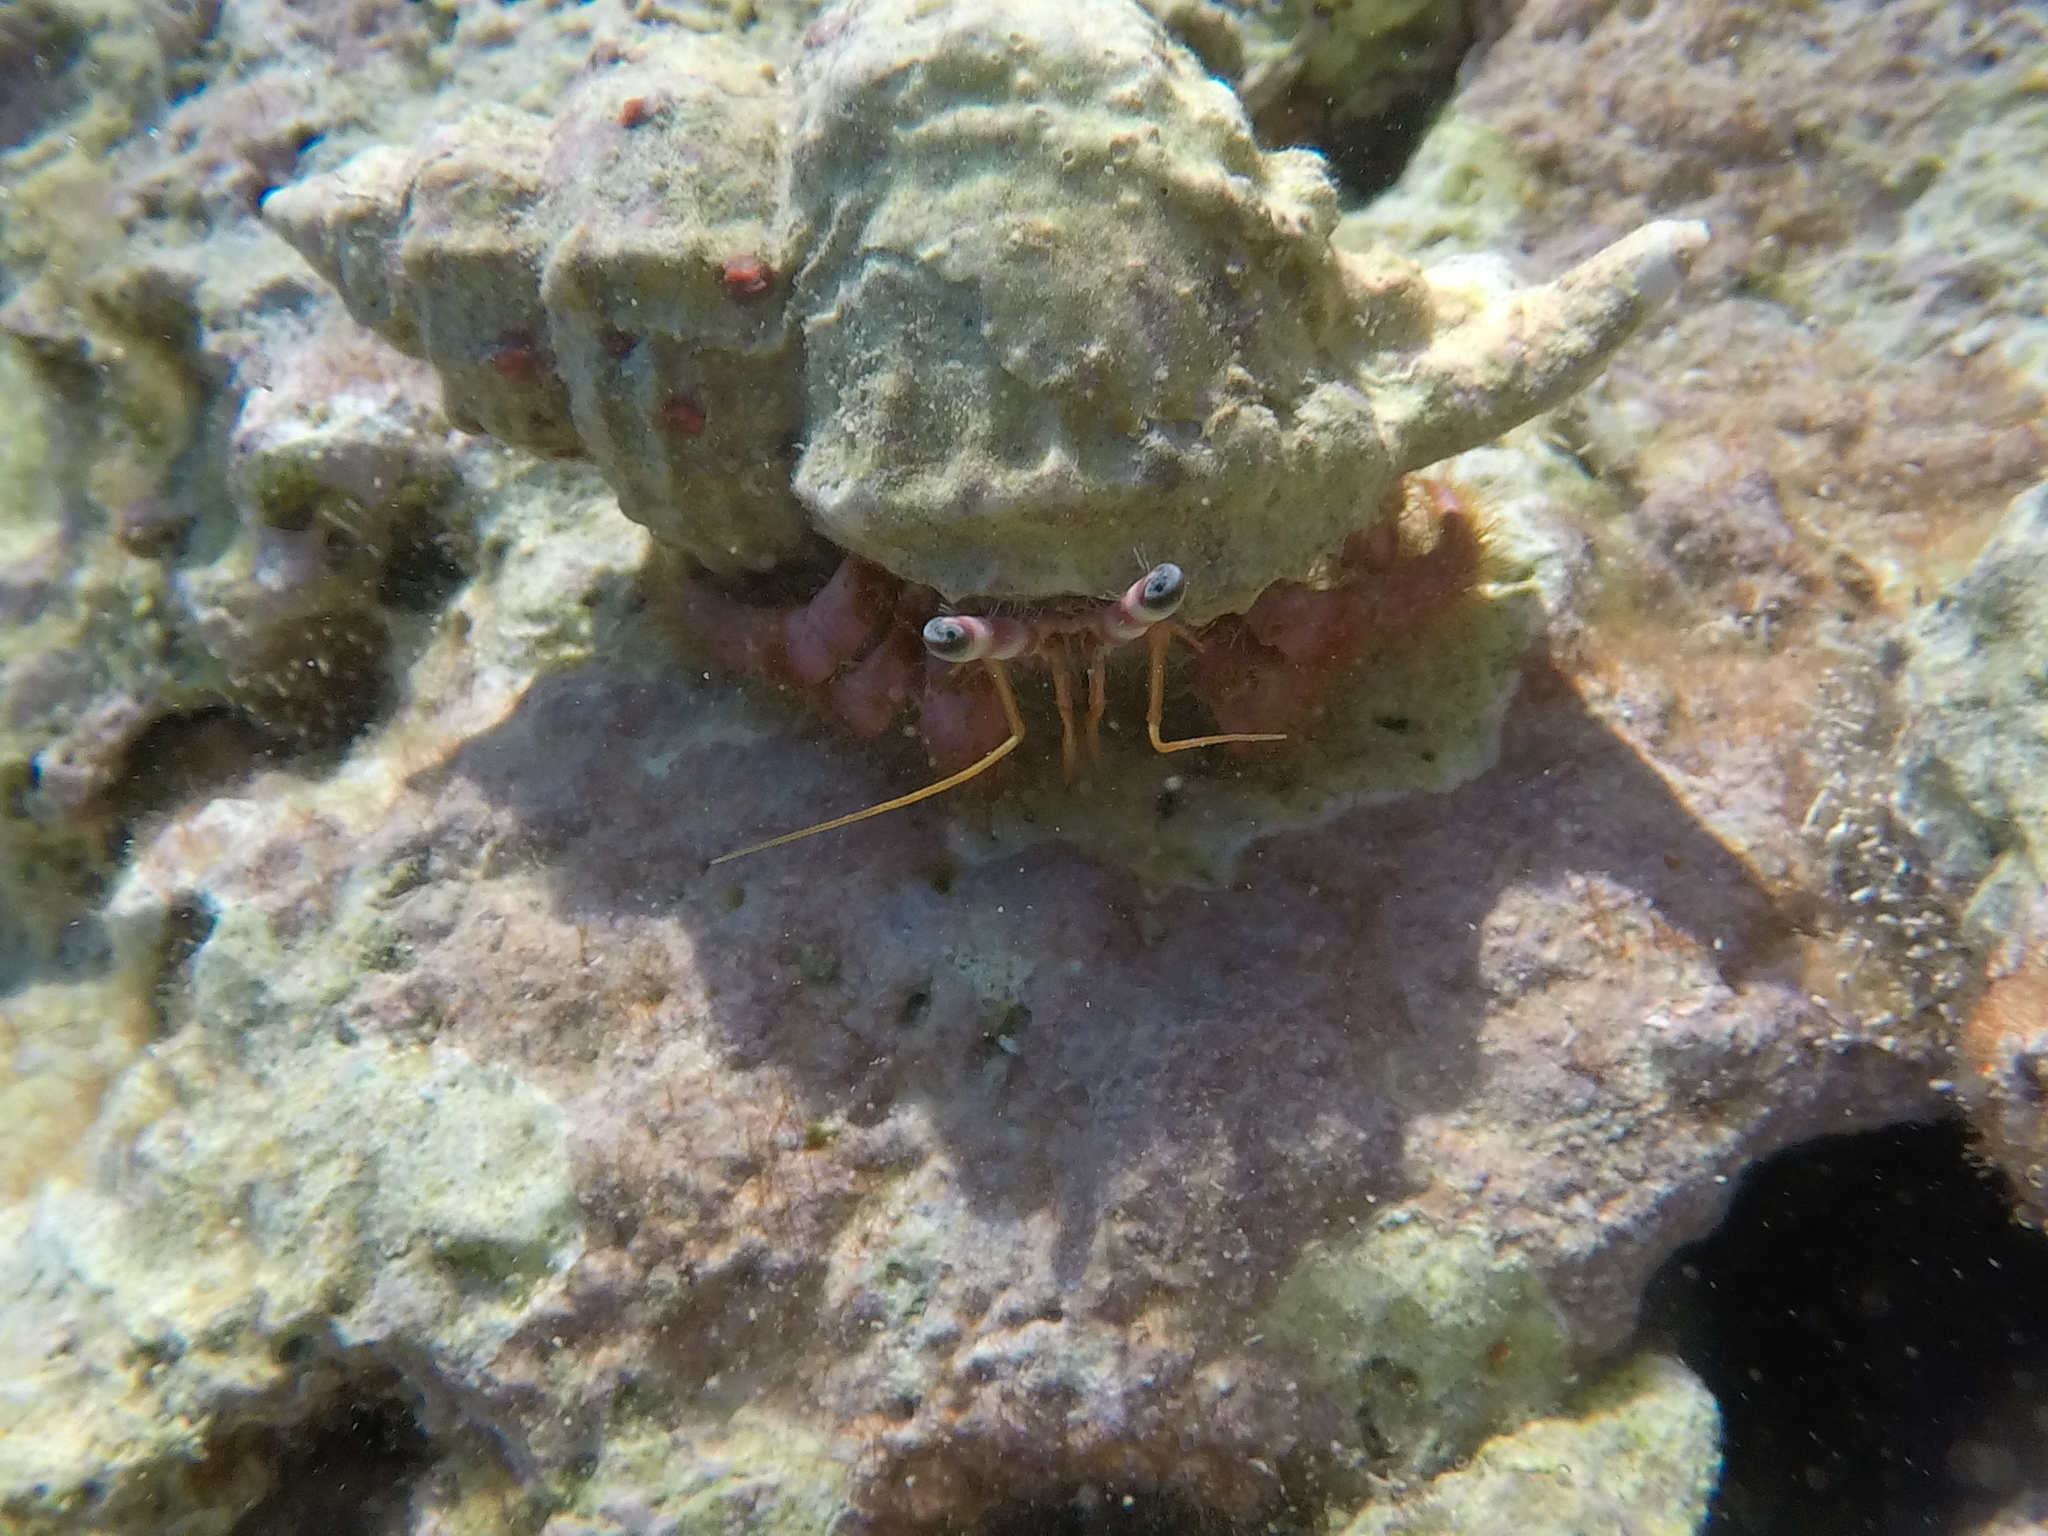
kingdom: Animalia
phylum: Arthropoda
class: Malacostraca
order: Decapoda
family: Diogenidae
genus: Dardanus
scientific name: Dardanus calidus
